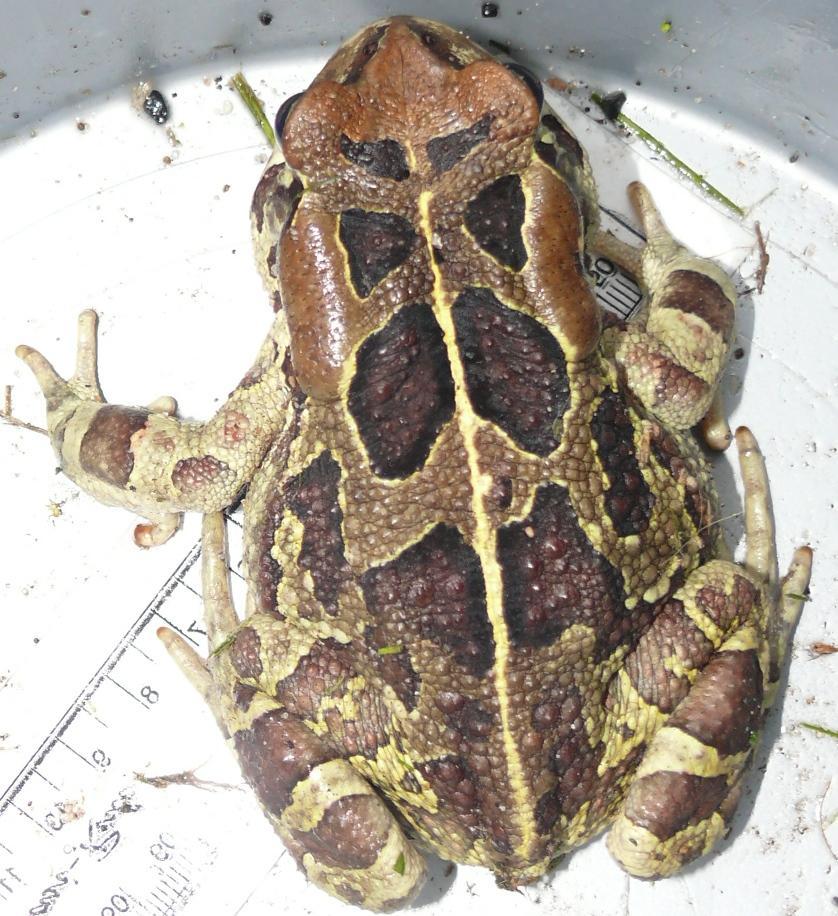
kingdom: Animalia
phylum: Chordata
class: Amphibia
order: Anura
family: Bufonidae
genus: Sclerophrys
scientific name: Sclerophrys pantherina
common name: Panther toad
